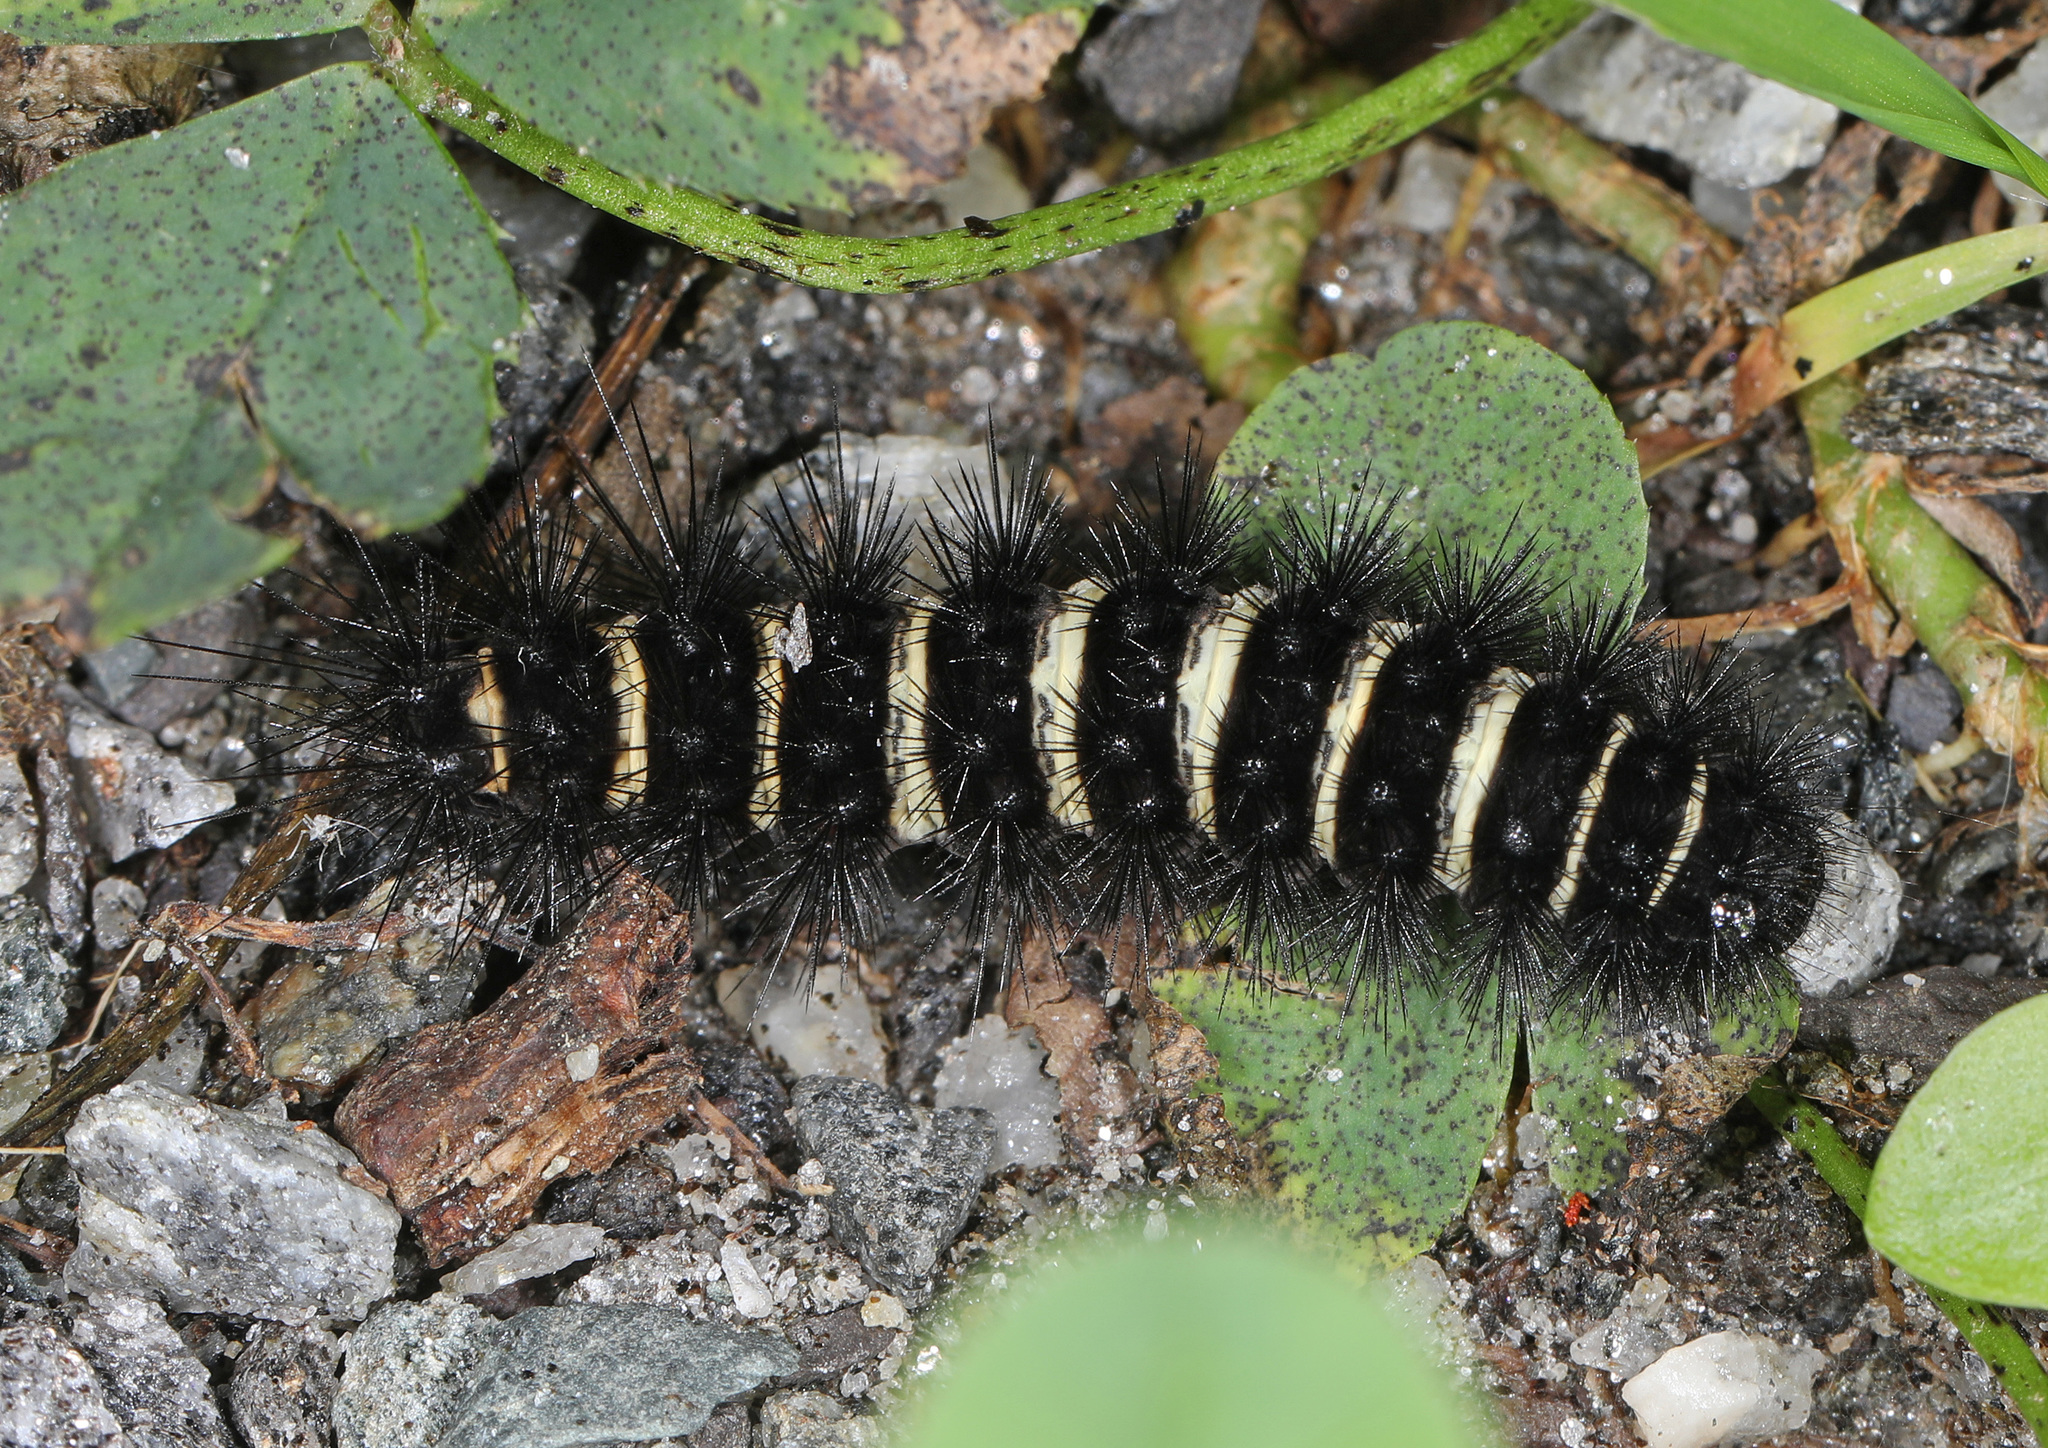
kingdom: Animalia
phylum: Arthropoda
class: Insecta
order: Lepidoptera
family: Erebidae
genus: Spilosoma
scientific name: Spilosoma congrua
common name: Agreeable tiger moth
